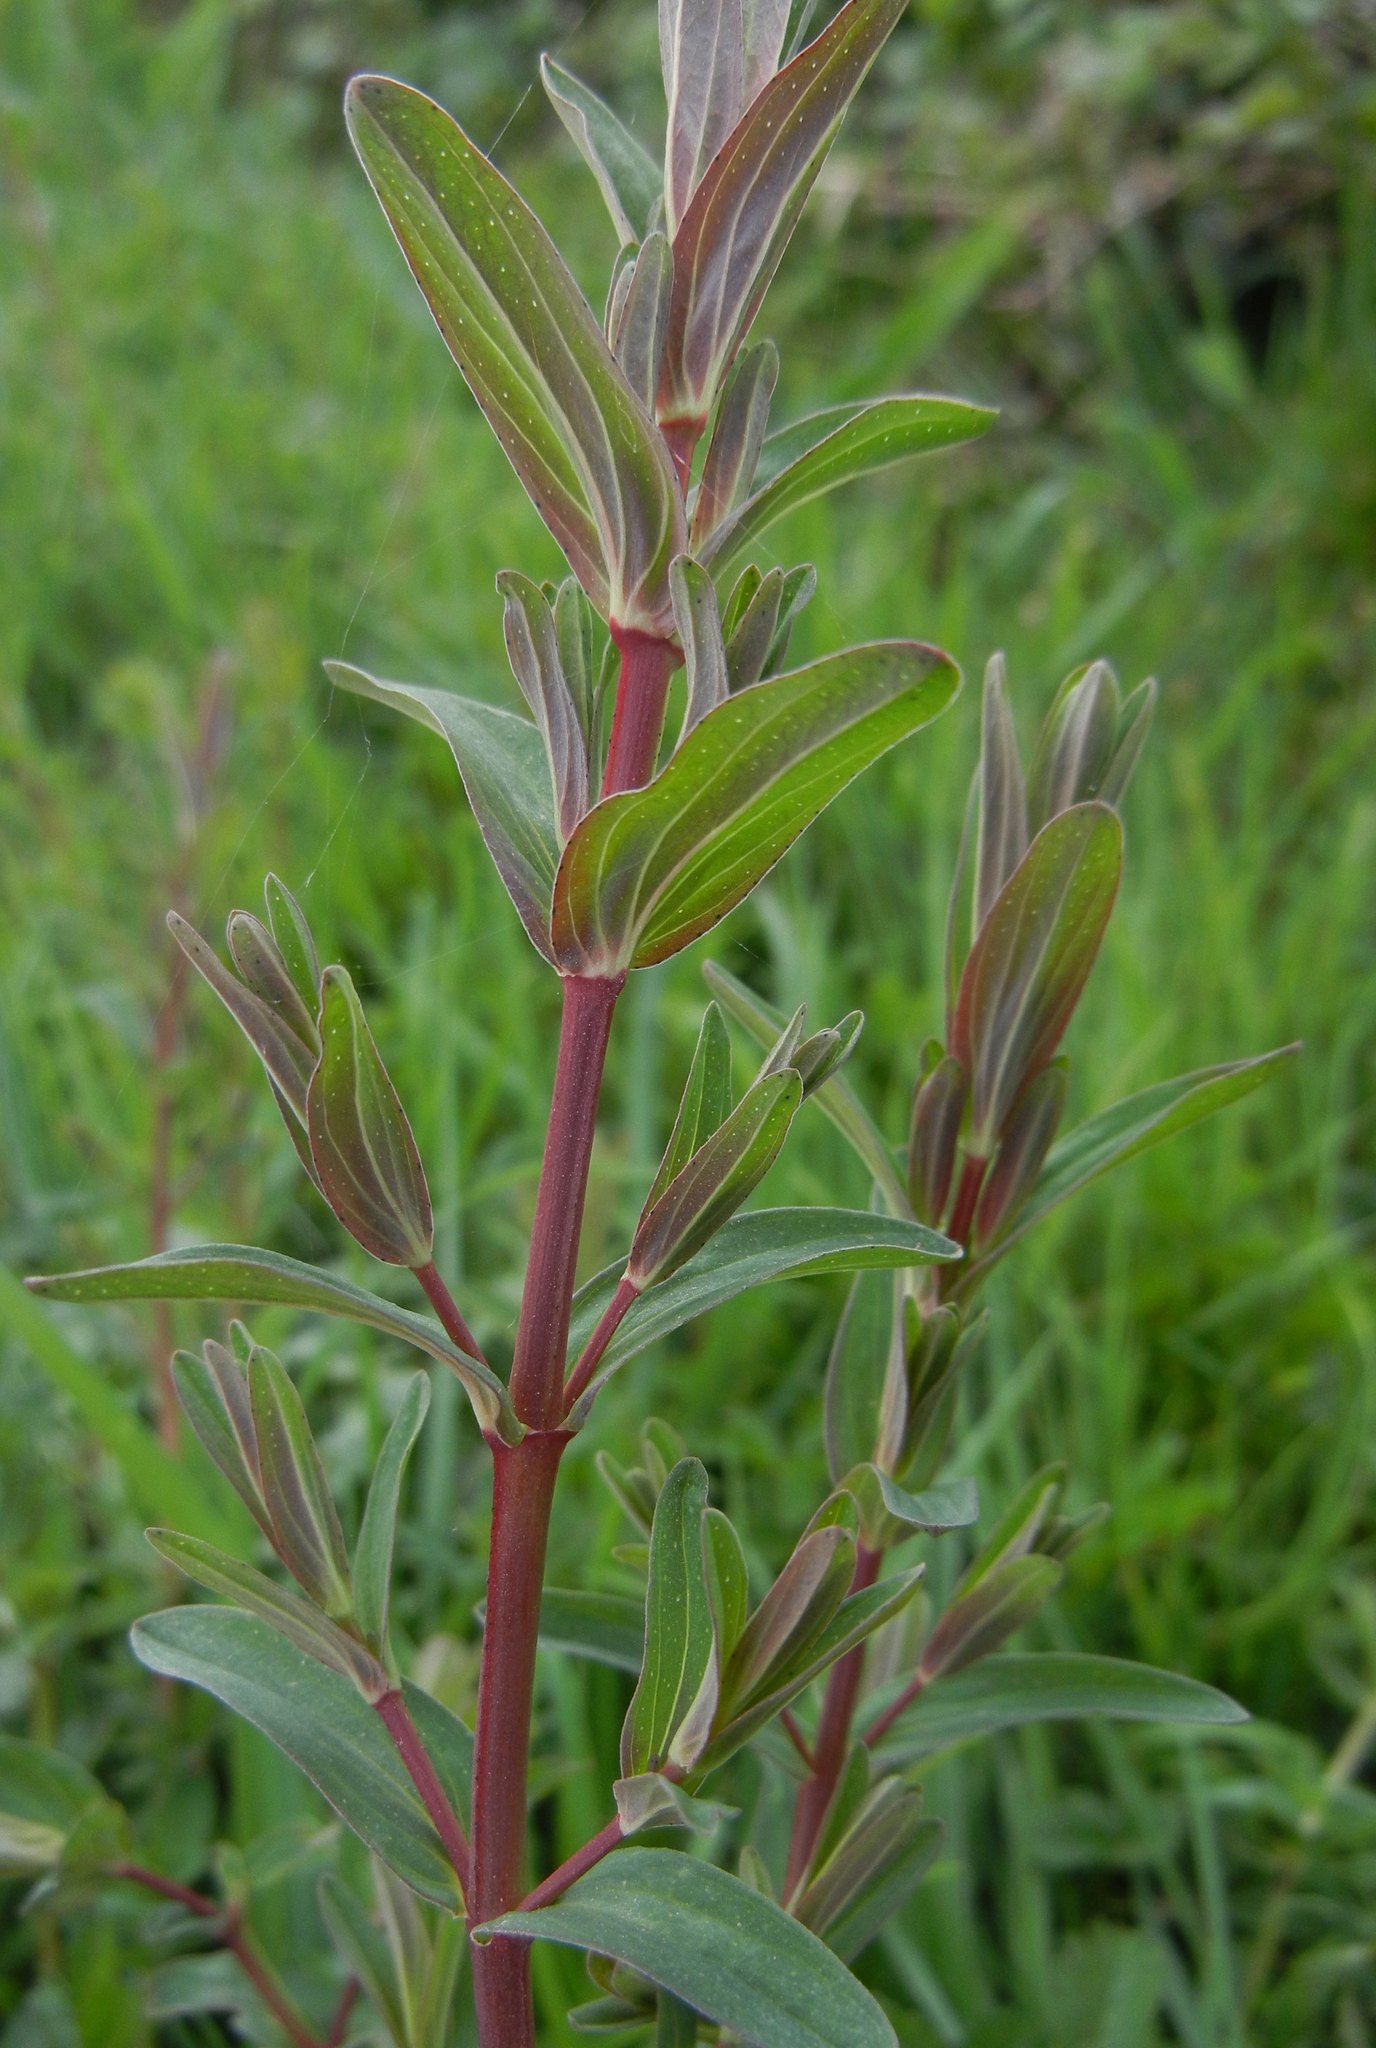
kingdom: Plantae
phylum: Tracheophyta
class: Magnoliopsida
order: Malpighiales
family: Hypericaceae
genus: Hypericum
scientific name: Hypericum perforatum
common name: Common st. johnswort
